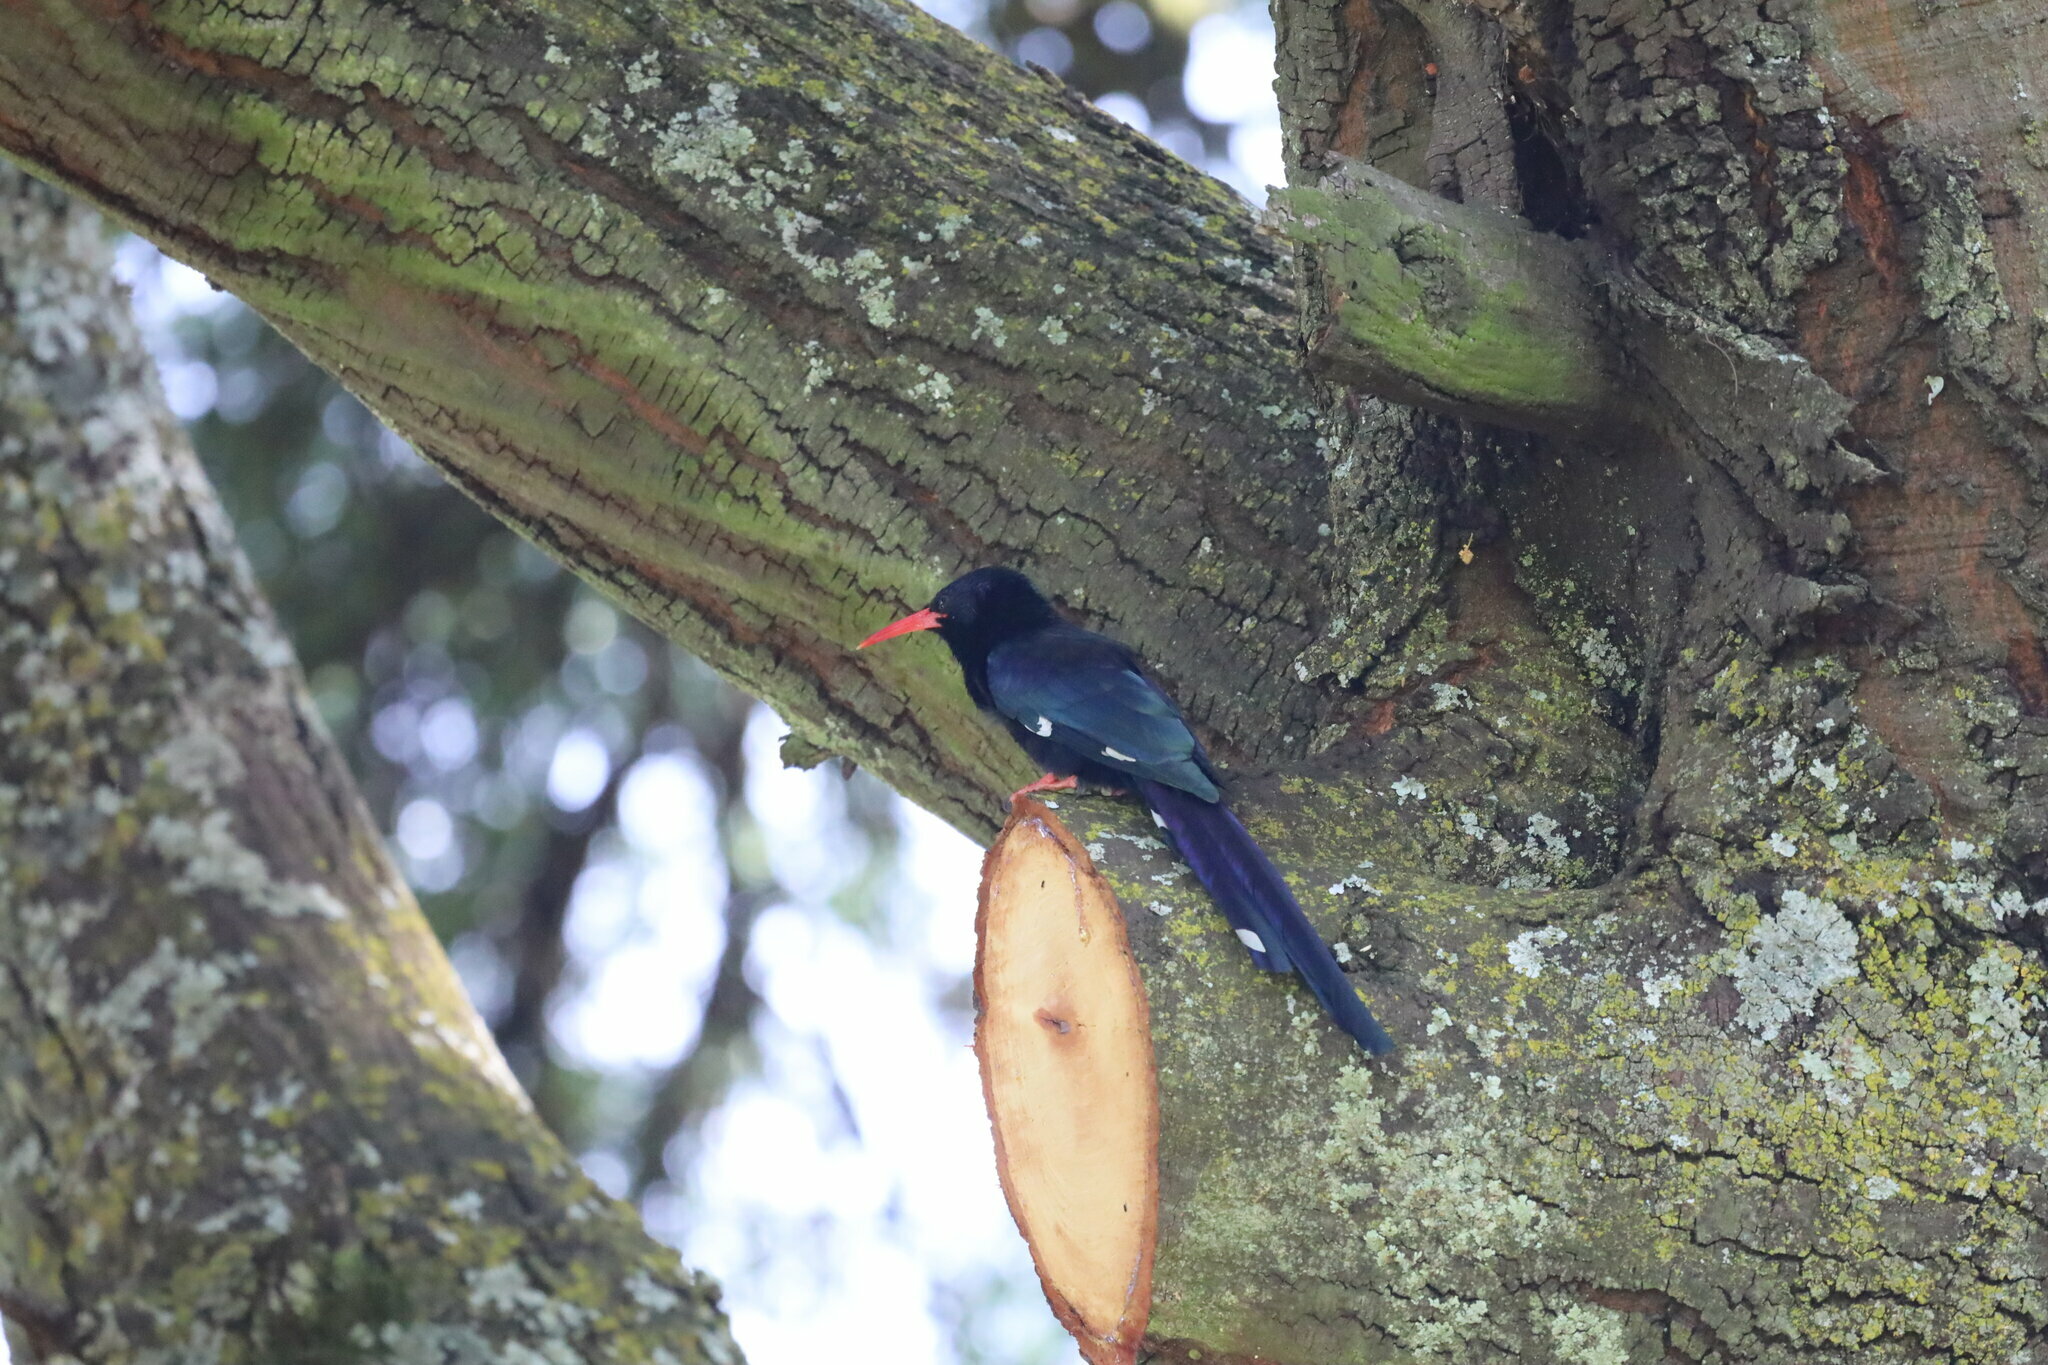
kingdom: Animalia
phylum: Chordata
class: Aves
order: Bucerotiformes
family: Phoeniculidae
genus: Phoeniculus
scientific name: Phoeniculus purpureus
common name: Green woodhoopoe
